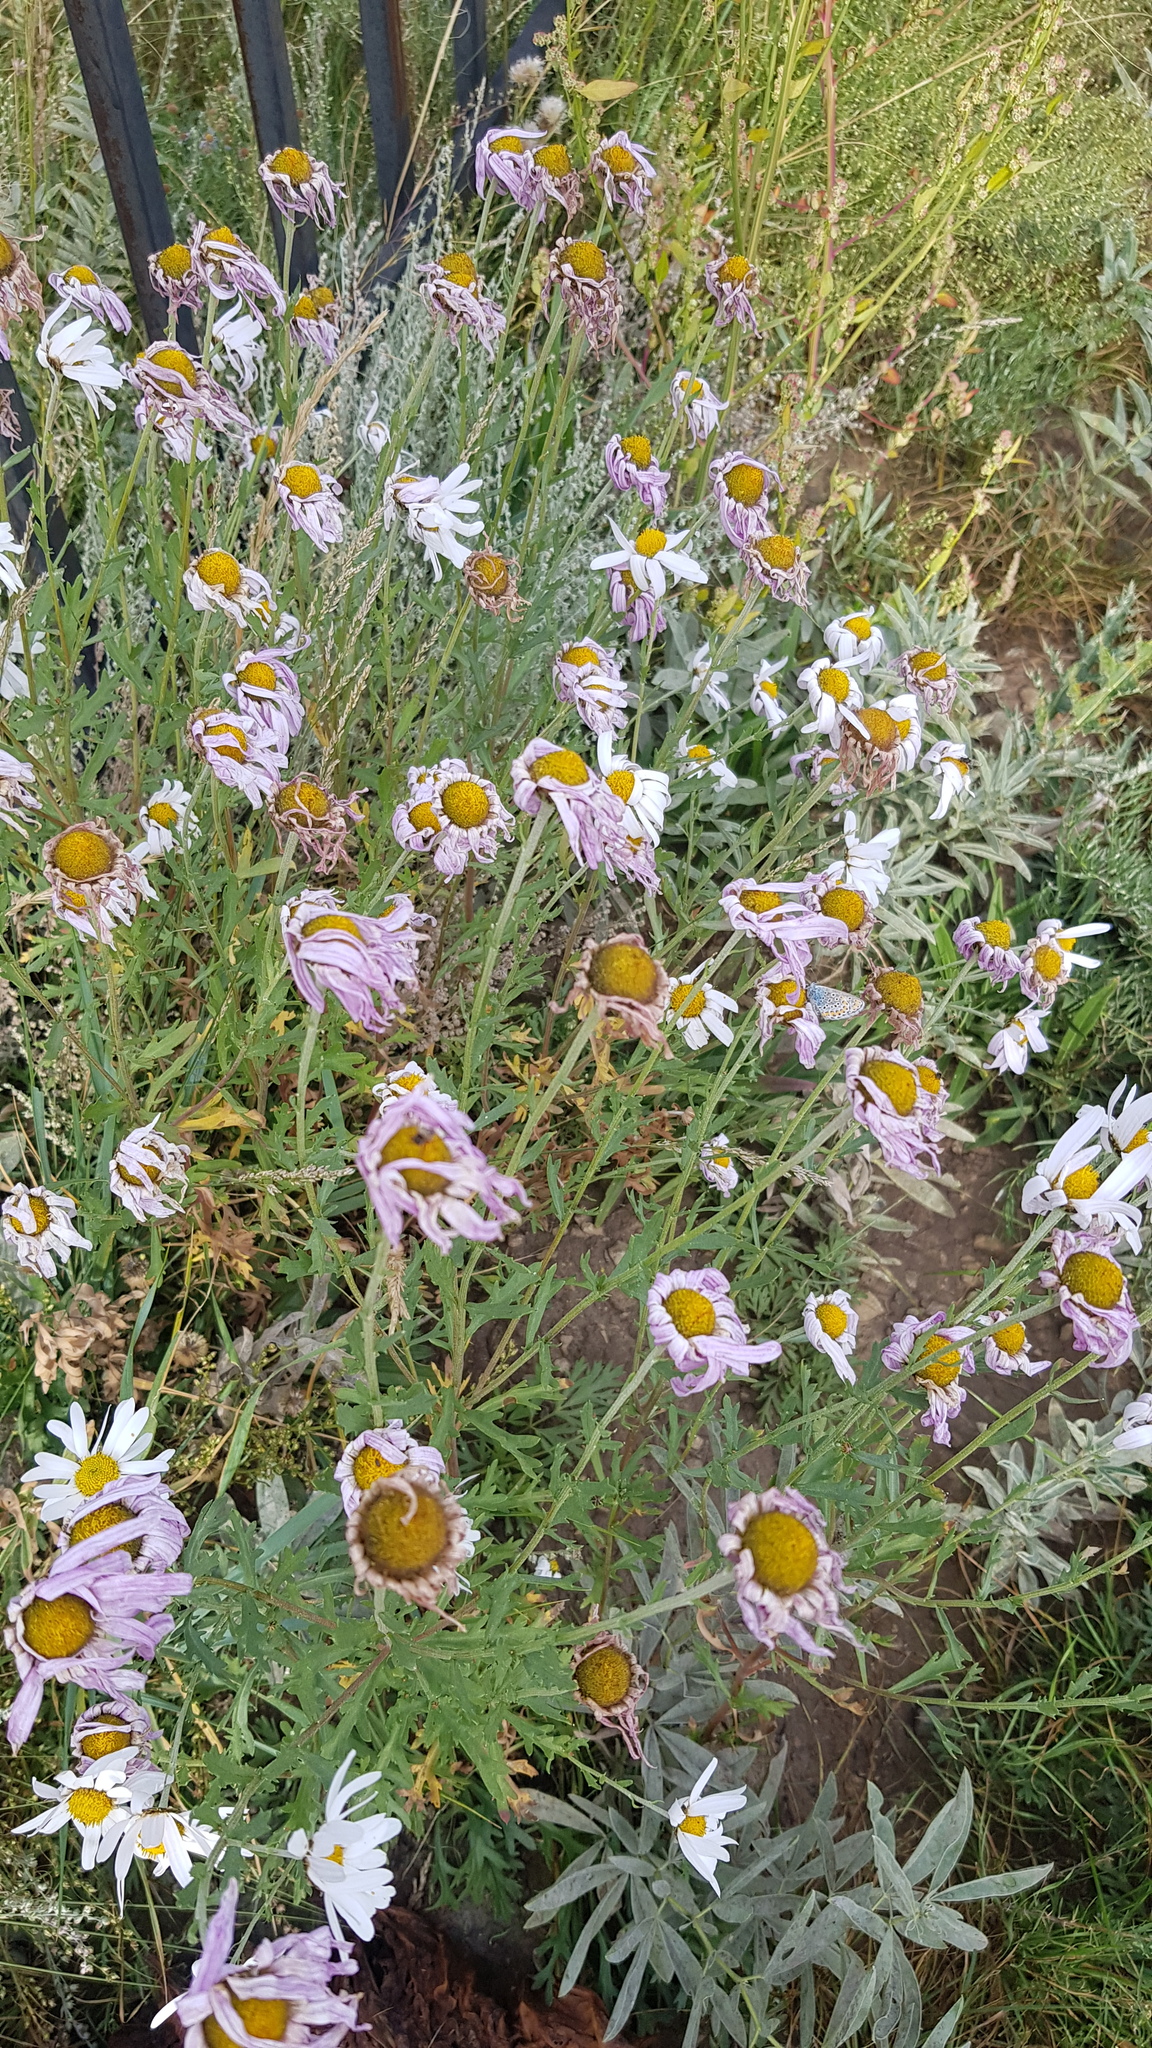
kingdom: Plantae
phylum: Tracheophyta
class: Magnoliopsida
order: Asterales
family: Asteraceae
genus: Chrysanthemum
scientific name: Chrysanthemum zawadzkii
